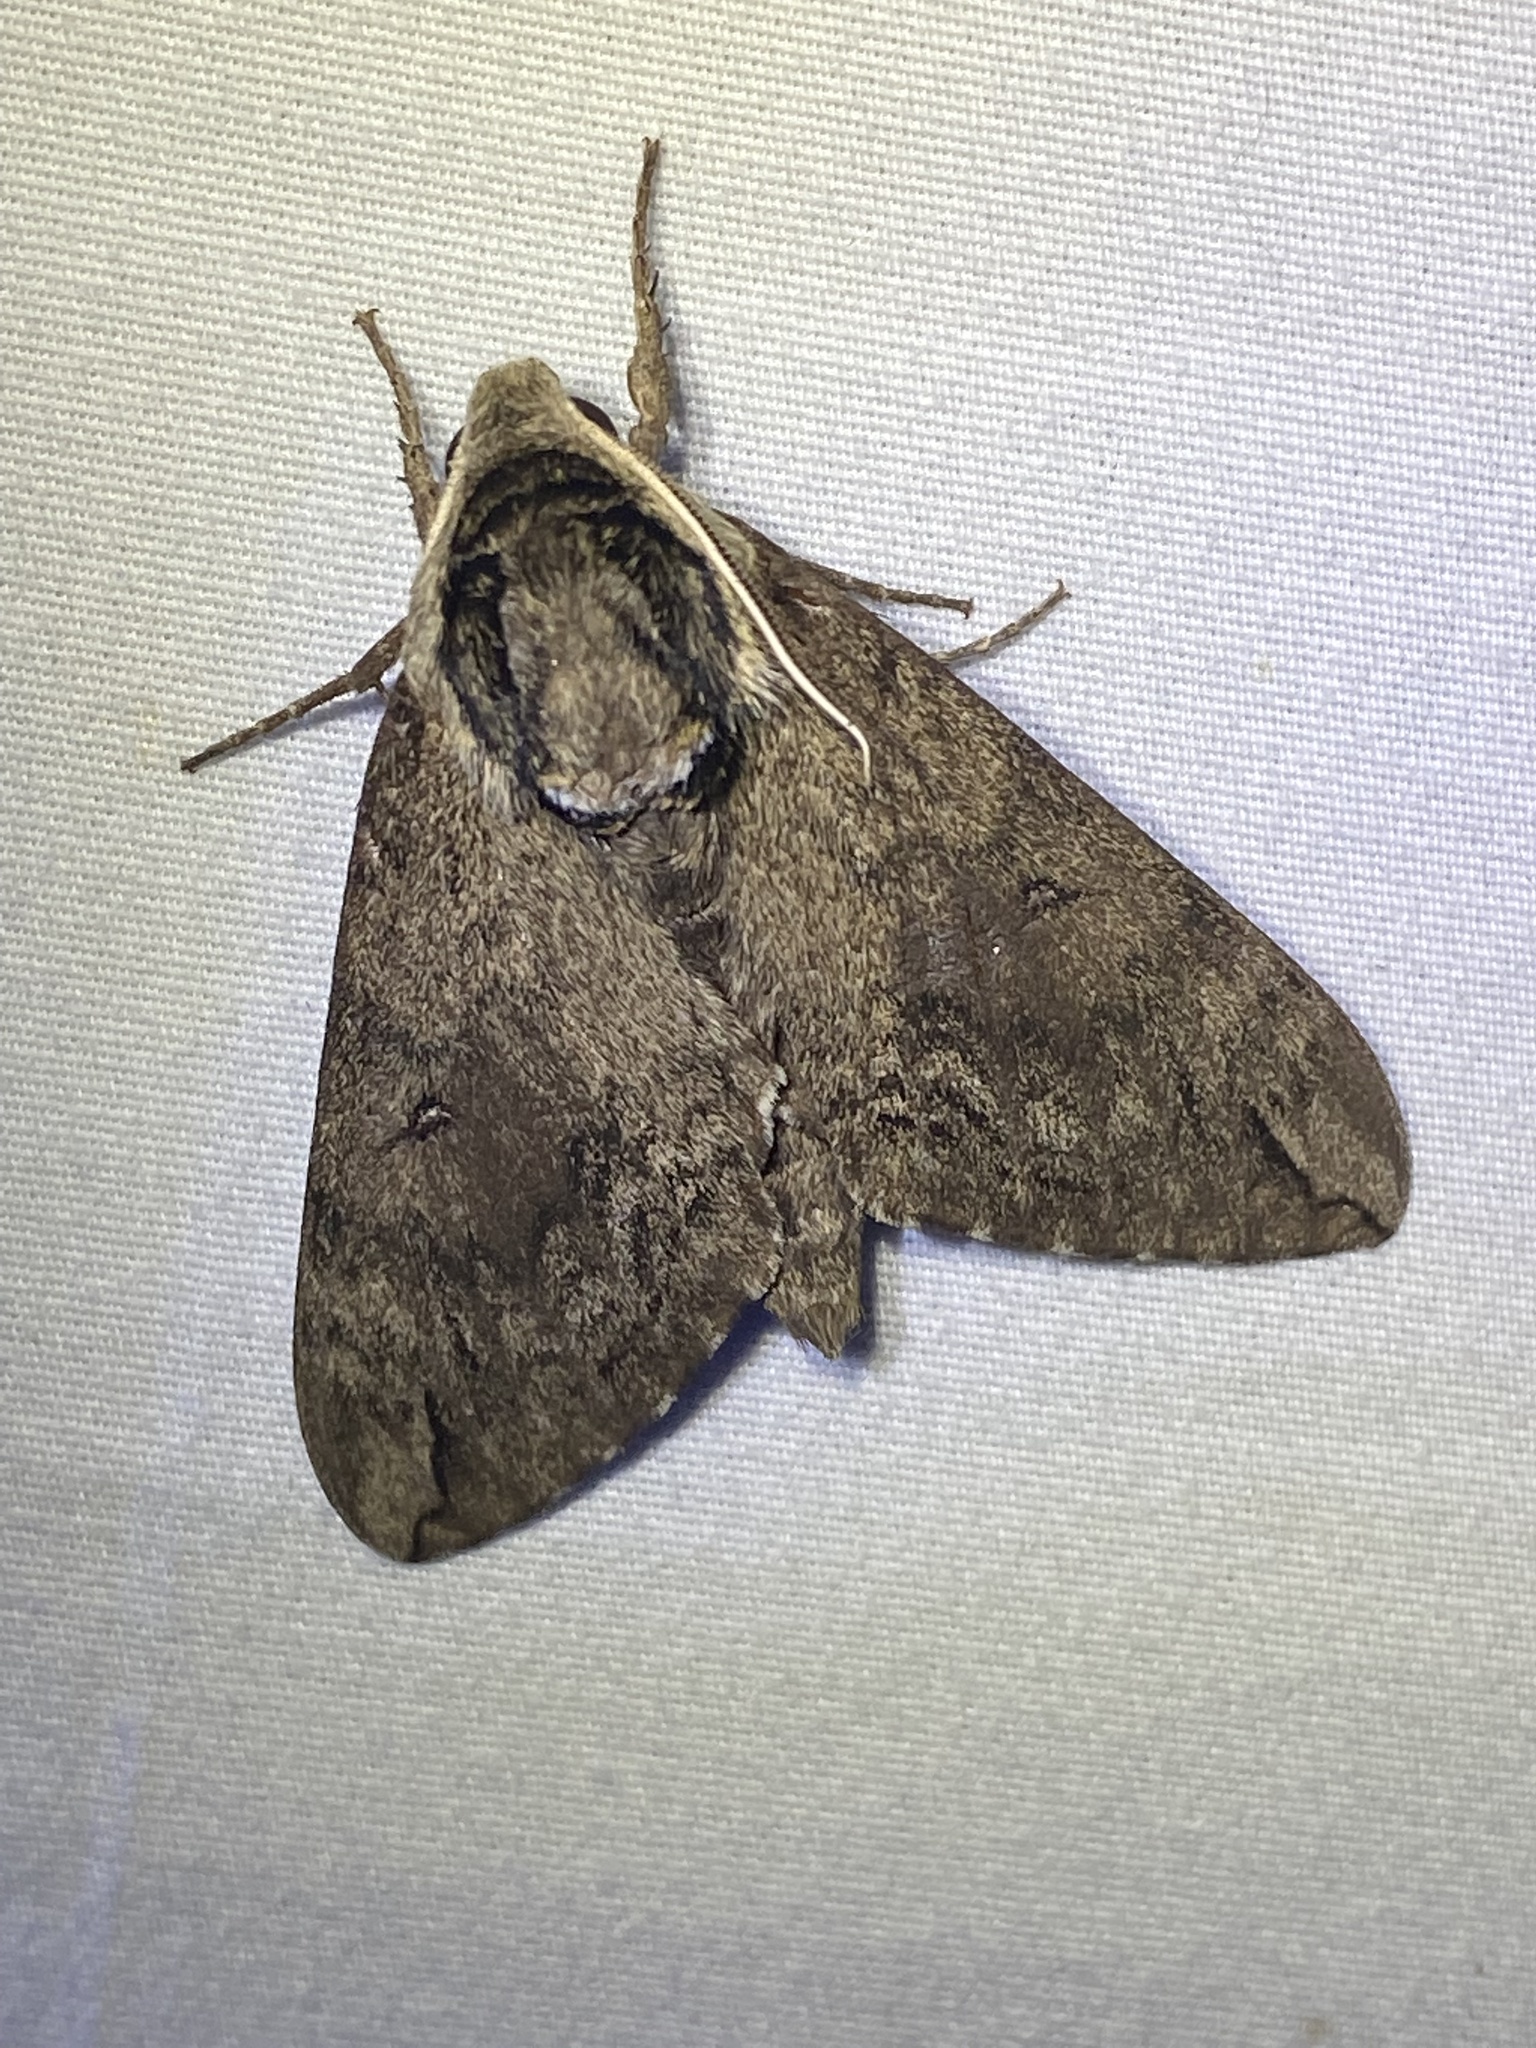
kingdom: Animalia
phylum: Arthropoda
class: Insecta
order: Lepidoptera
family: Sphingidae
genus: Ceratomia
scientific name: Ceratomia catalpae
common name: Catalpa hornworm
